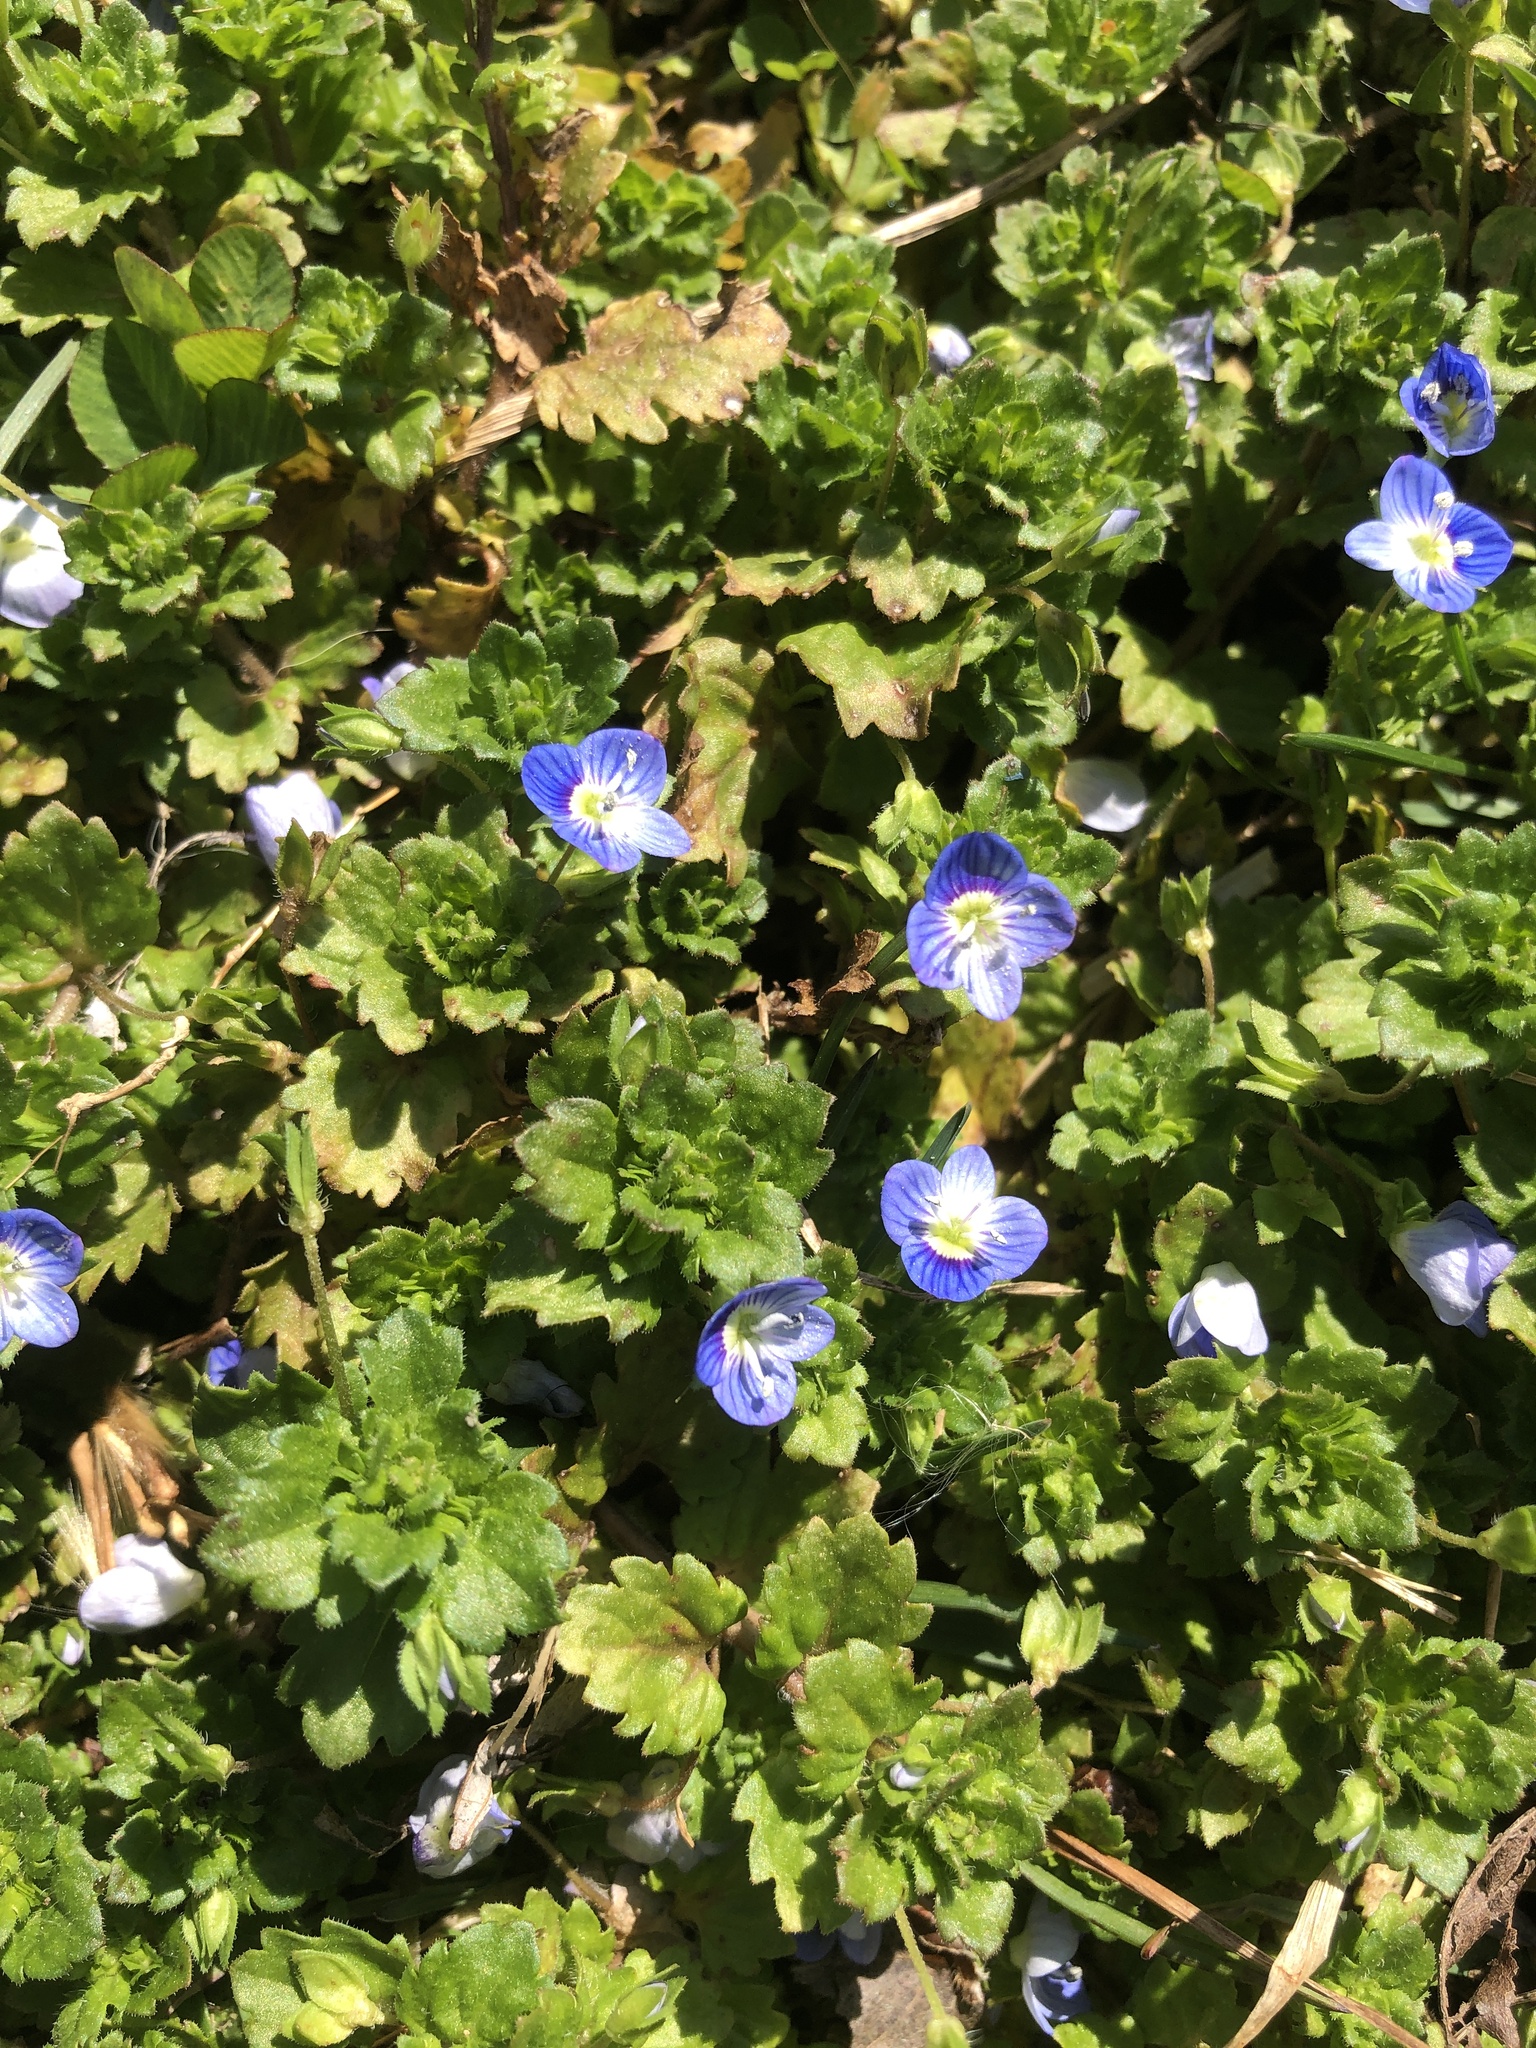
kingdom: Plantae
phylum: Tracheophyta
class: Magnoliopsida
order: Lamiales
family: Plantaginaceae
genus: Veronica
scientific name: Veronica persica
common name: Common field-speedwell
